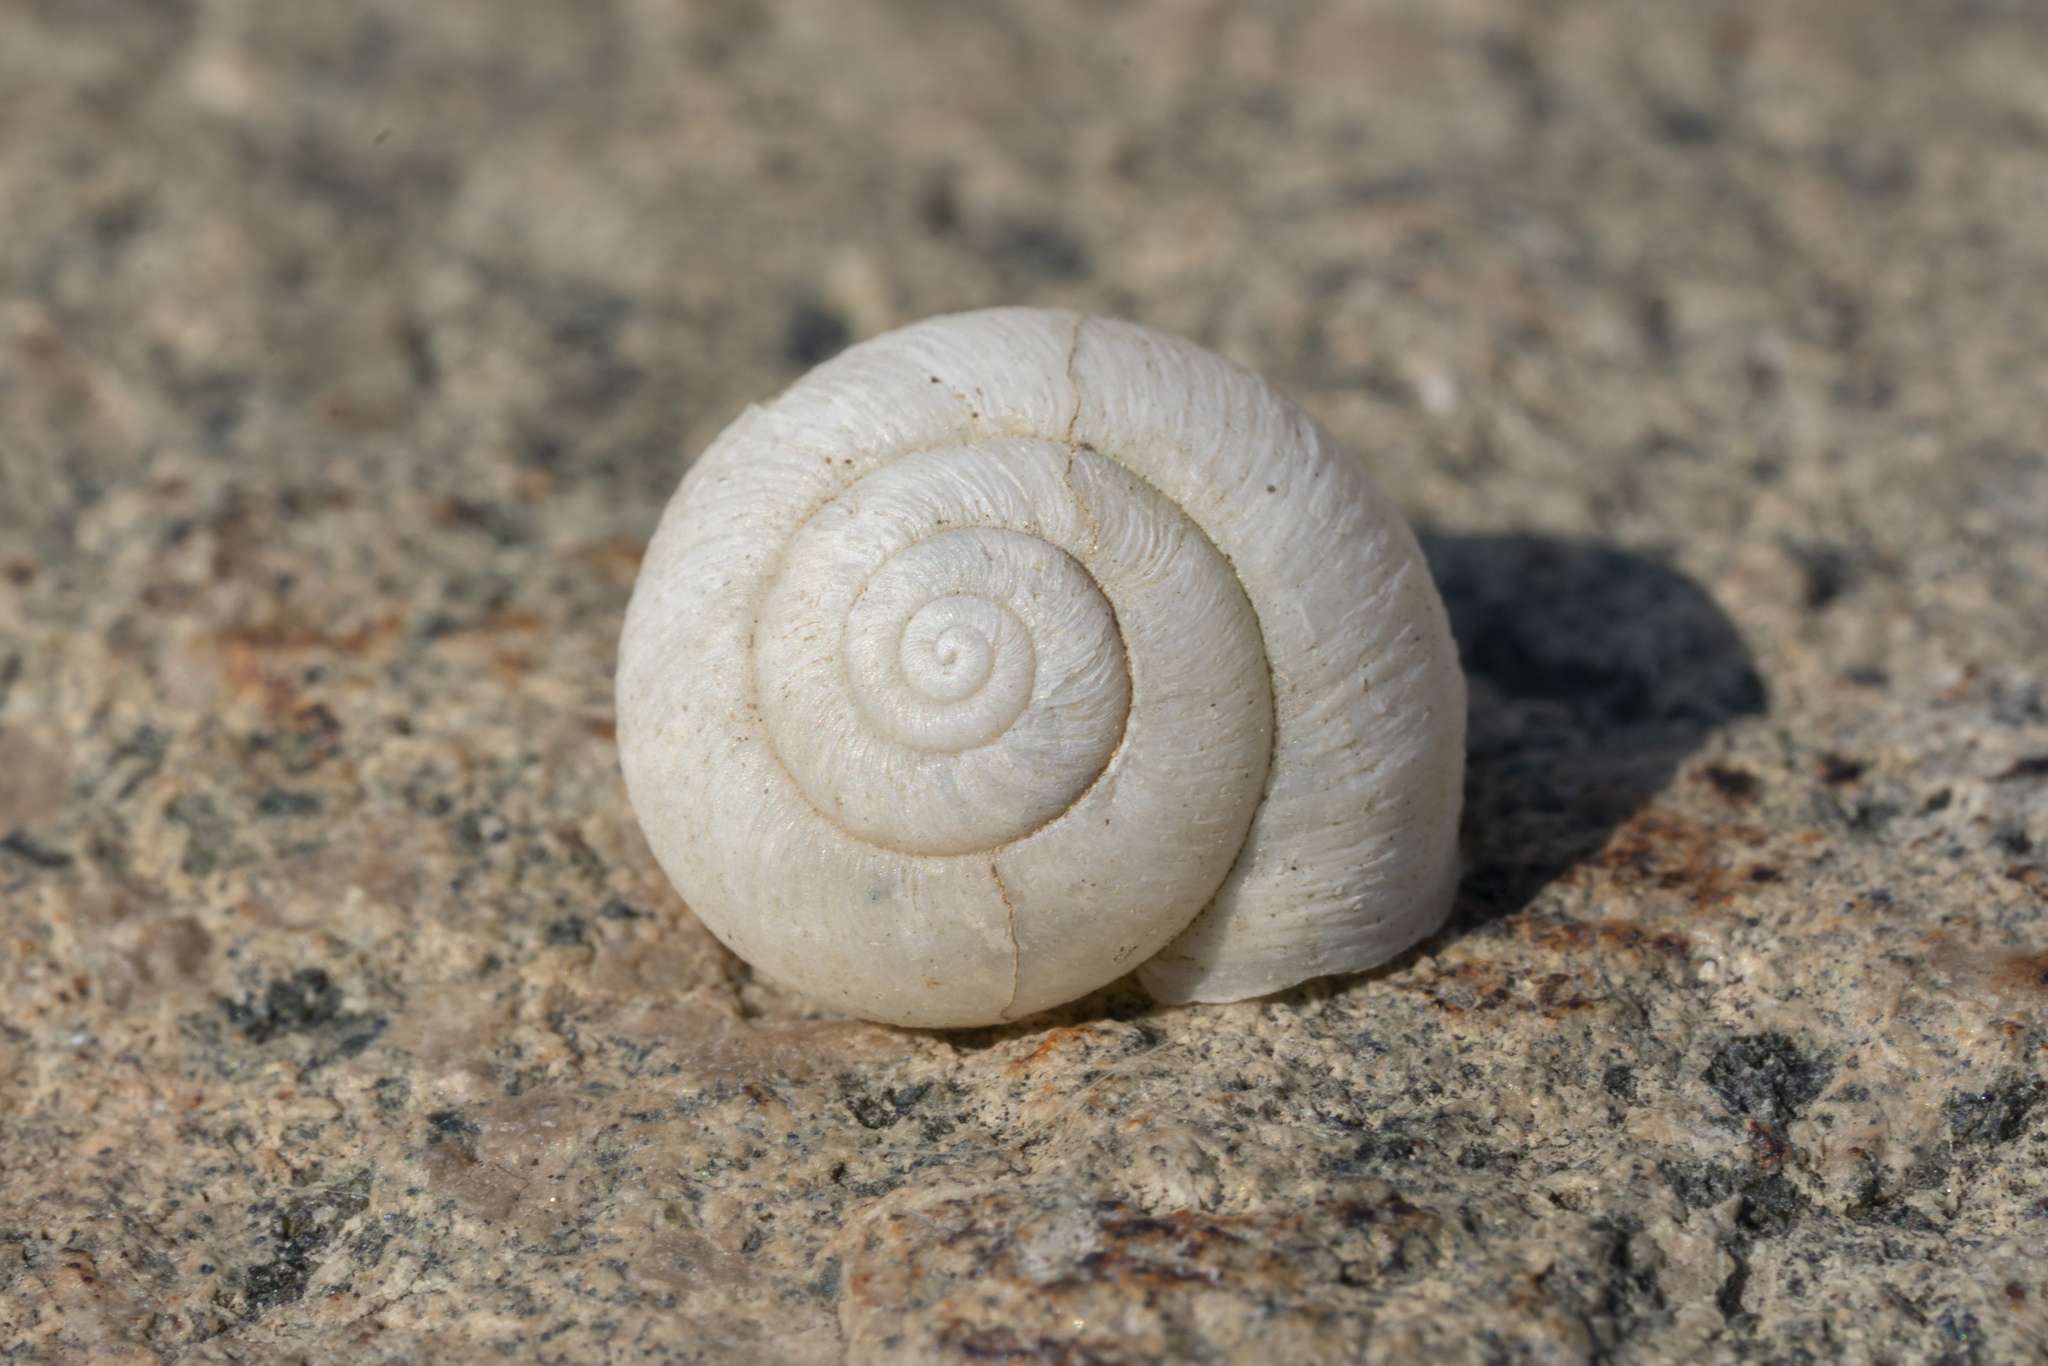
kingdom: Animalia
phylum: Mollusca
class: Gastropoda
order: Stylommatophora
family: Hygromiidae
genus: Metafruticicola
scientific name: Metafruticicola pellita
